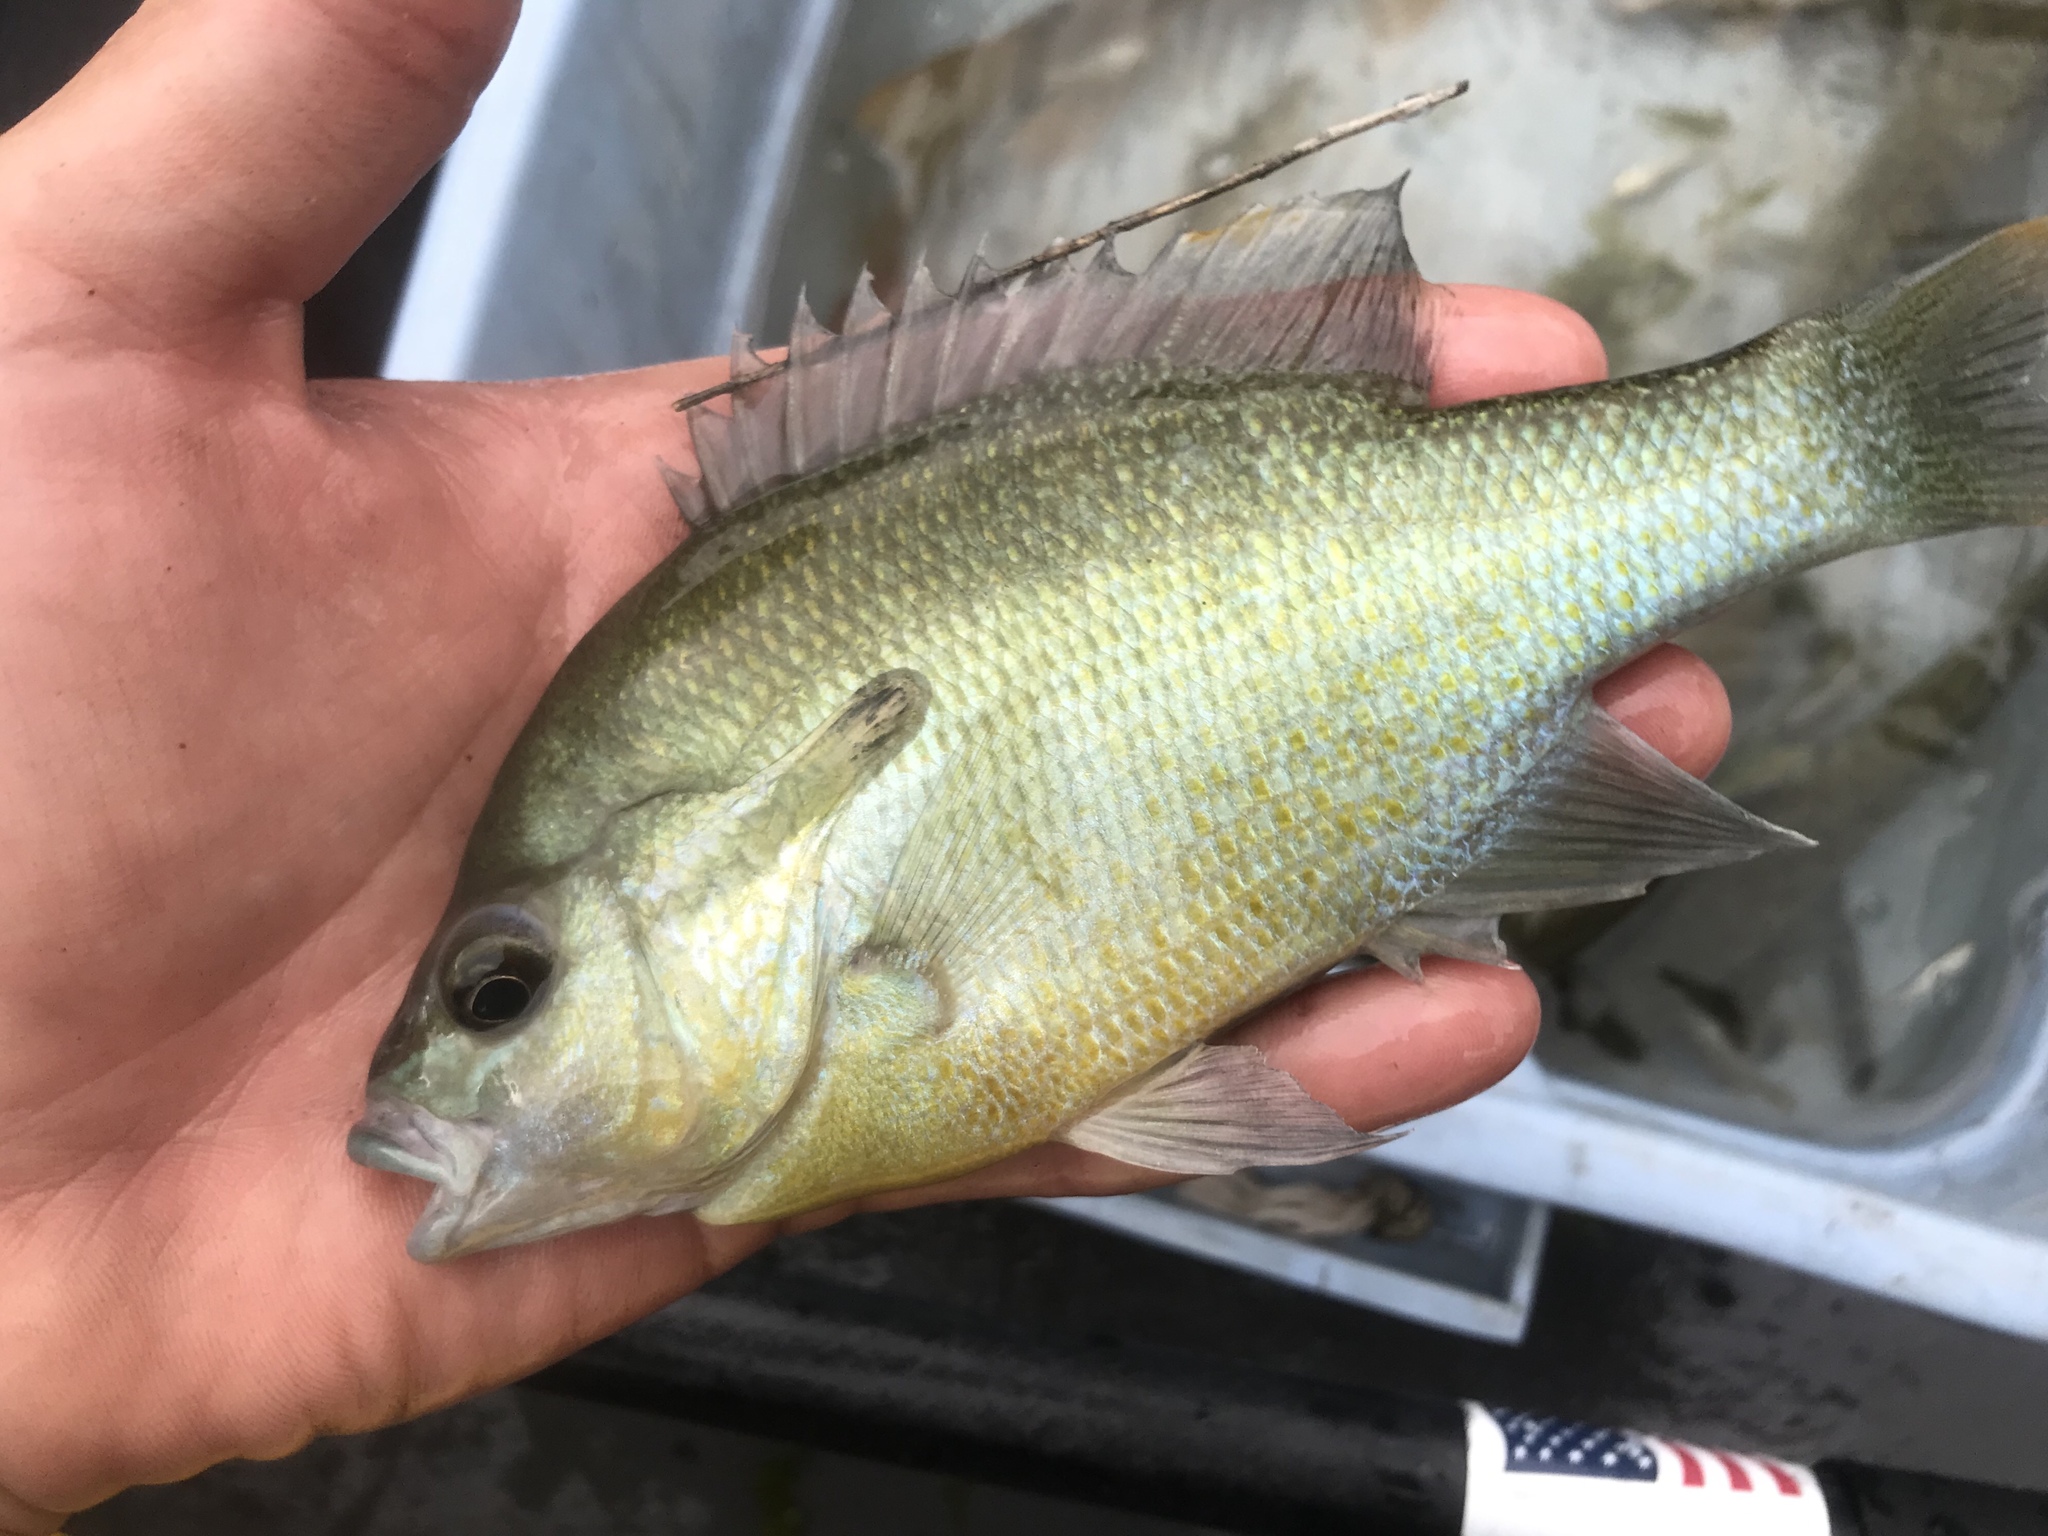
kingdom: Animalia
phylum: Chordata
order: Perciformes
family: Centrarchidae
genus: Lepomis
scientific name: Lepomis auritus
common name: Redbreast sunfish
